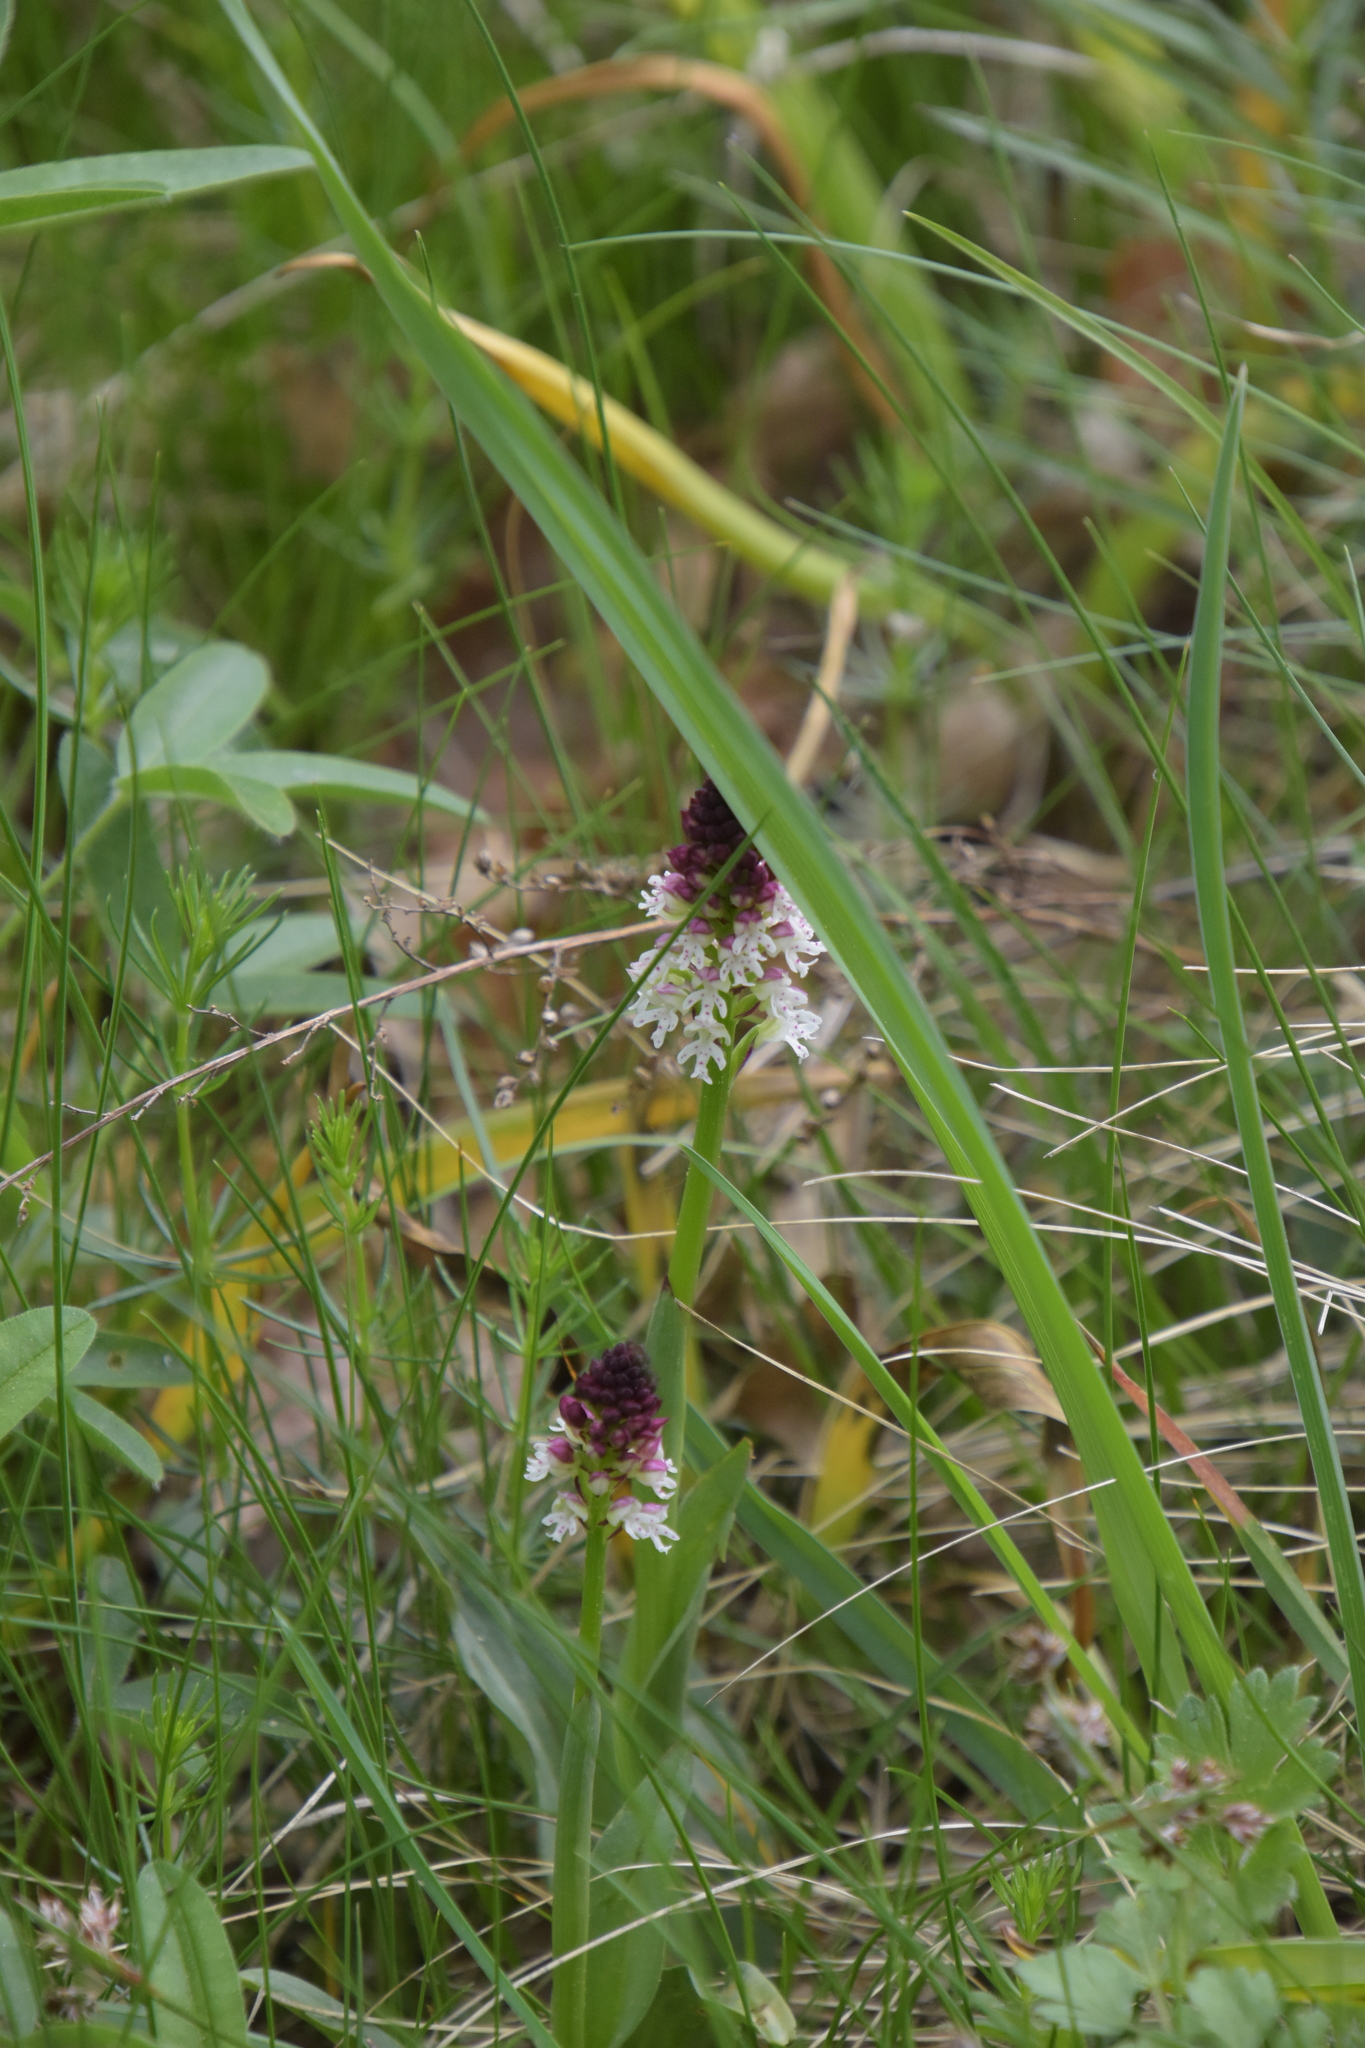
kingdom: Plantae
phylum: Tracheophyta
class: Liliopsida
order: Asparagales
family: Orchidaceae
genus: Neotinea
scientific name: Neotinea ustulata
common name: Burnt orchid
